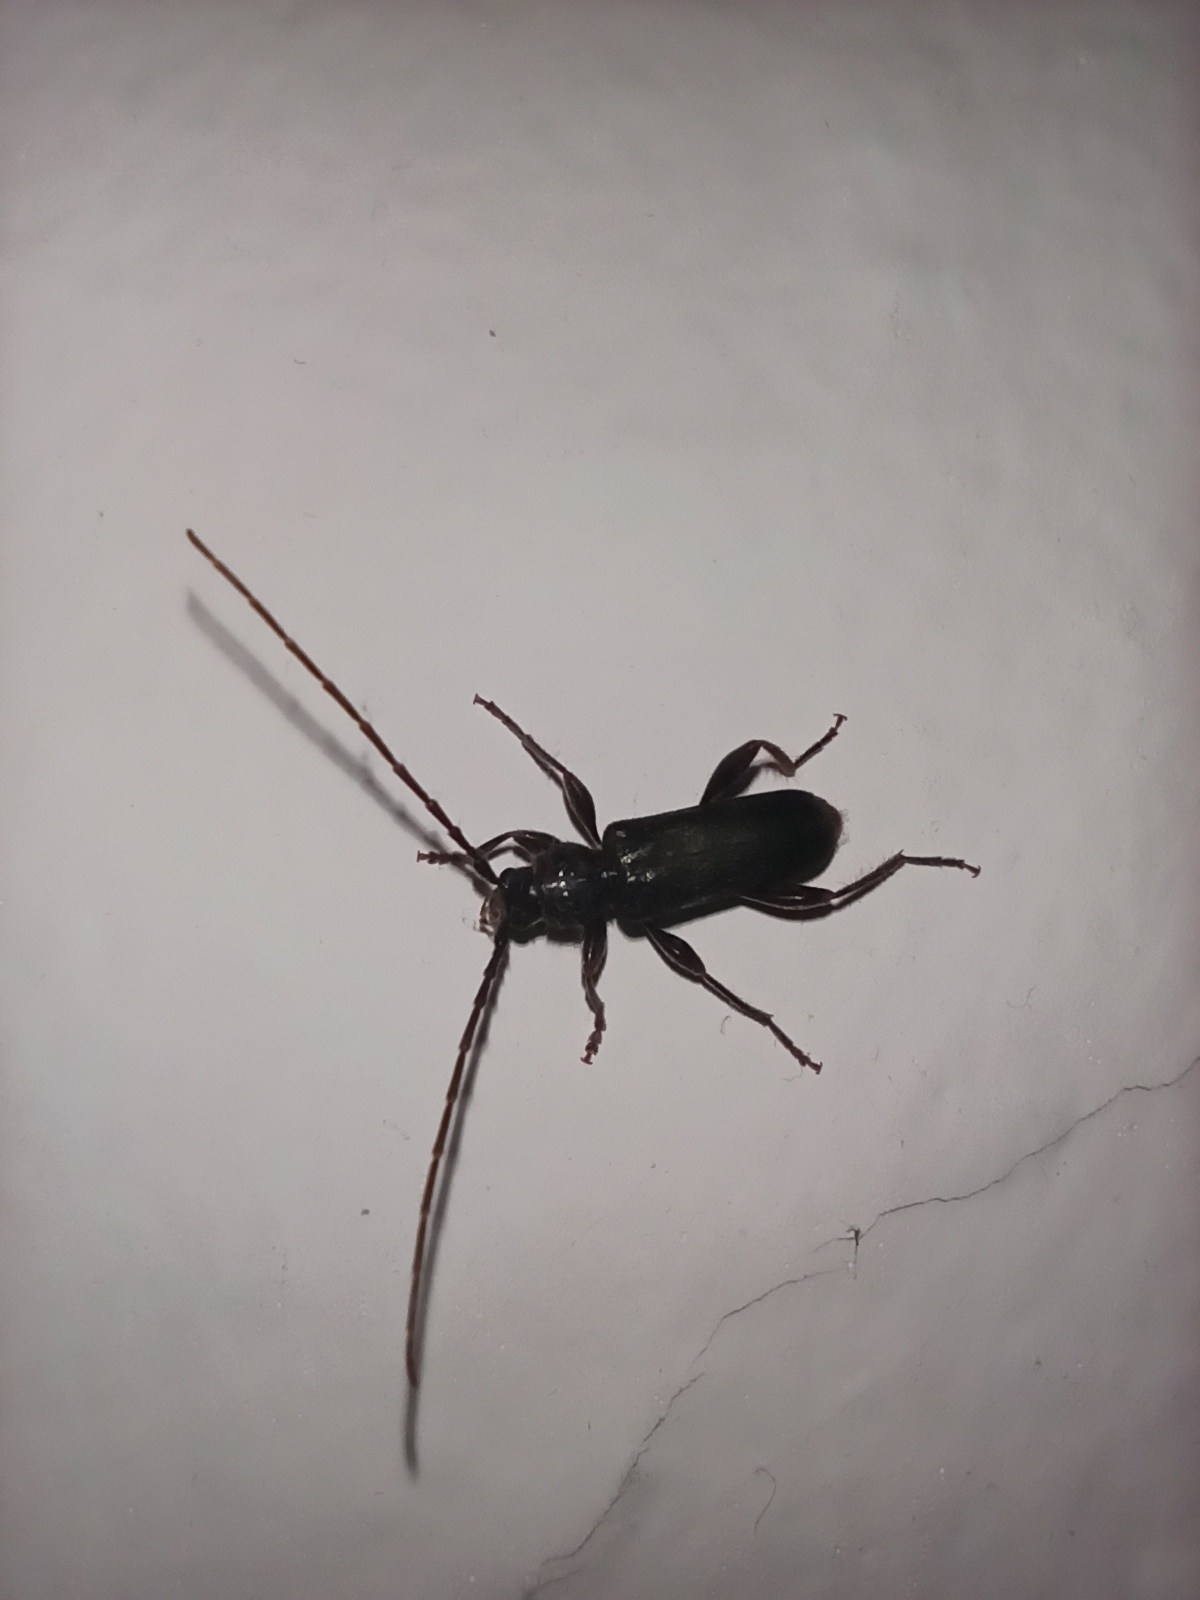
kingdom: Animalia
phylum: Arthropoda
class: Insecta
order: Coleoptera
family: Cerambycidae
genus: Phymatodes
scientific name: Phymatodes testaceus
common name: Long-horned beetle
